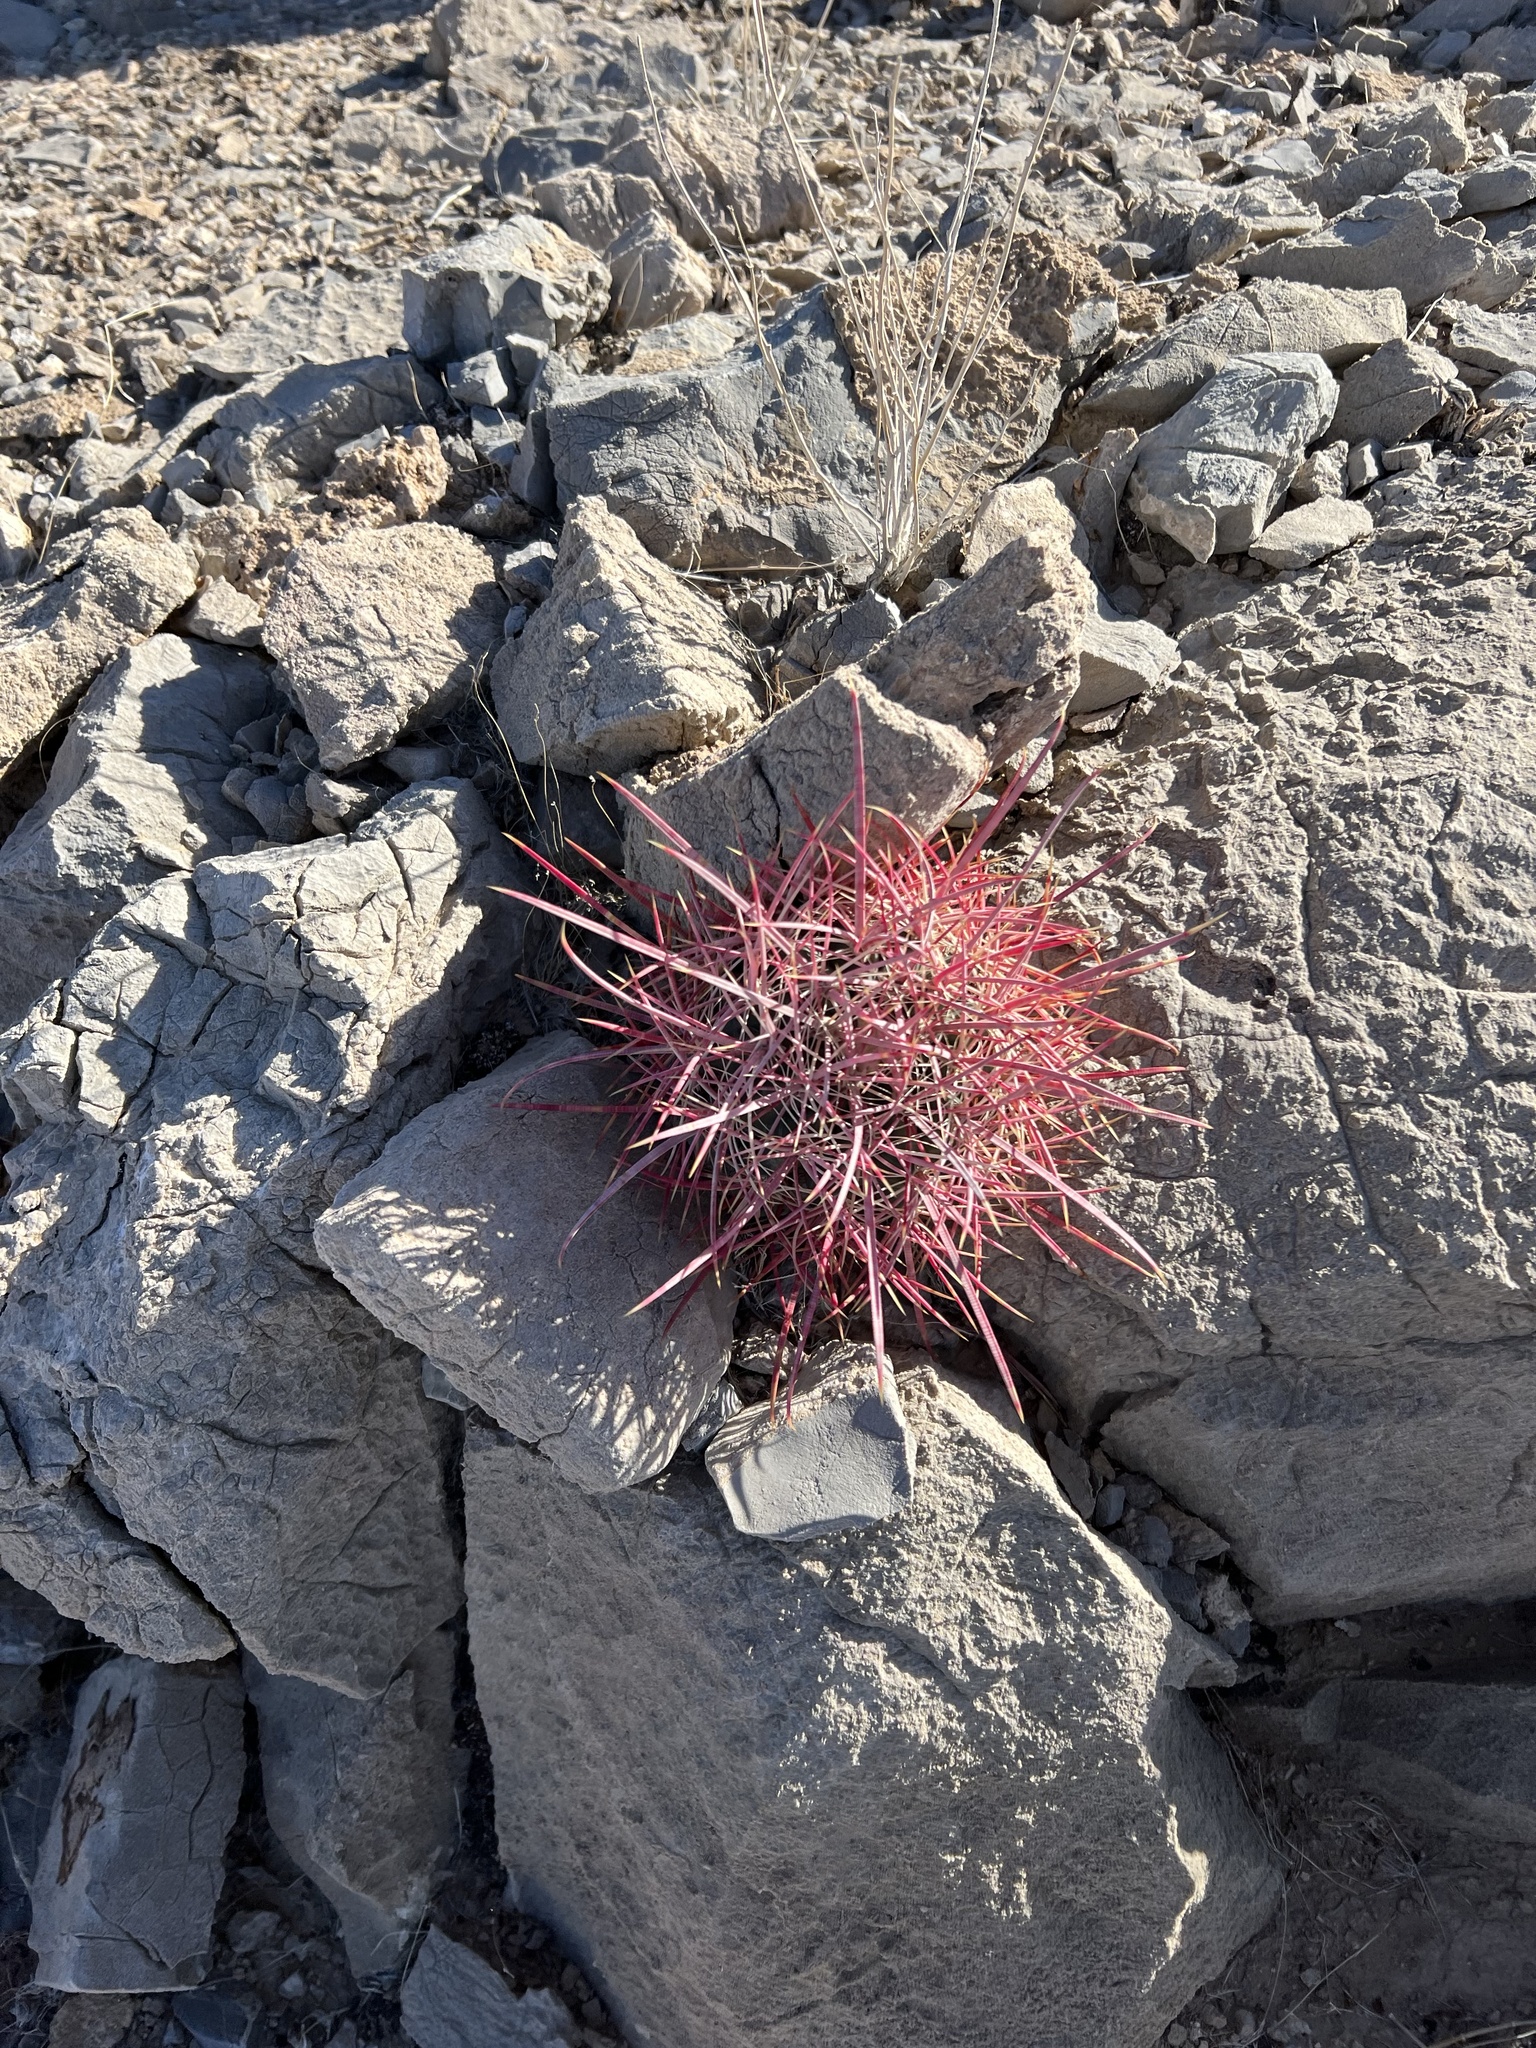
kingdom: Plantae
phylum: Tracheophyta
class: Magnoliopsida
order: Caryophyllales
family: Cactaceae
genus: Ferocactus
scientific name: Ferocactus cylindraceus
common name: California barrel cactus
